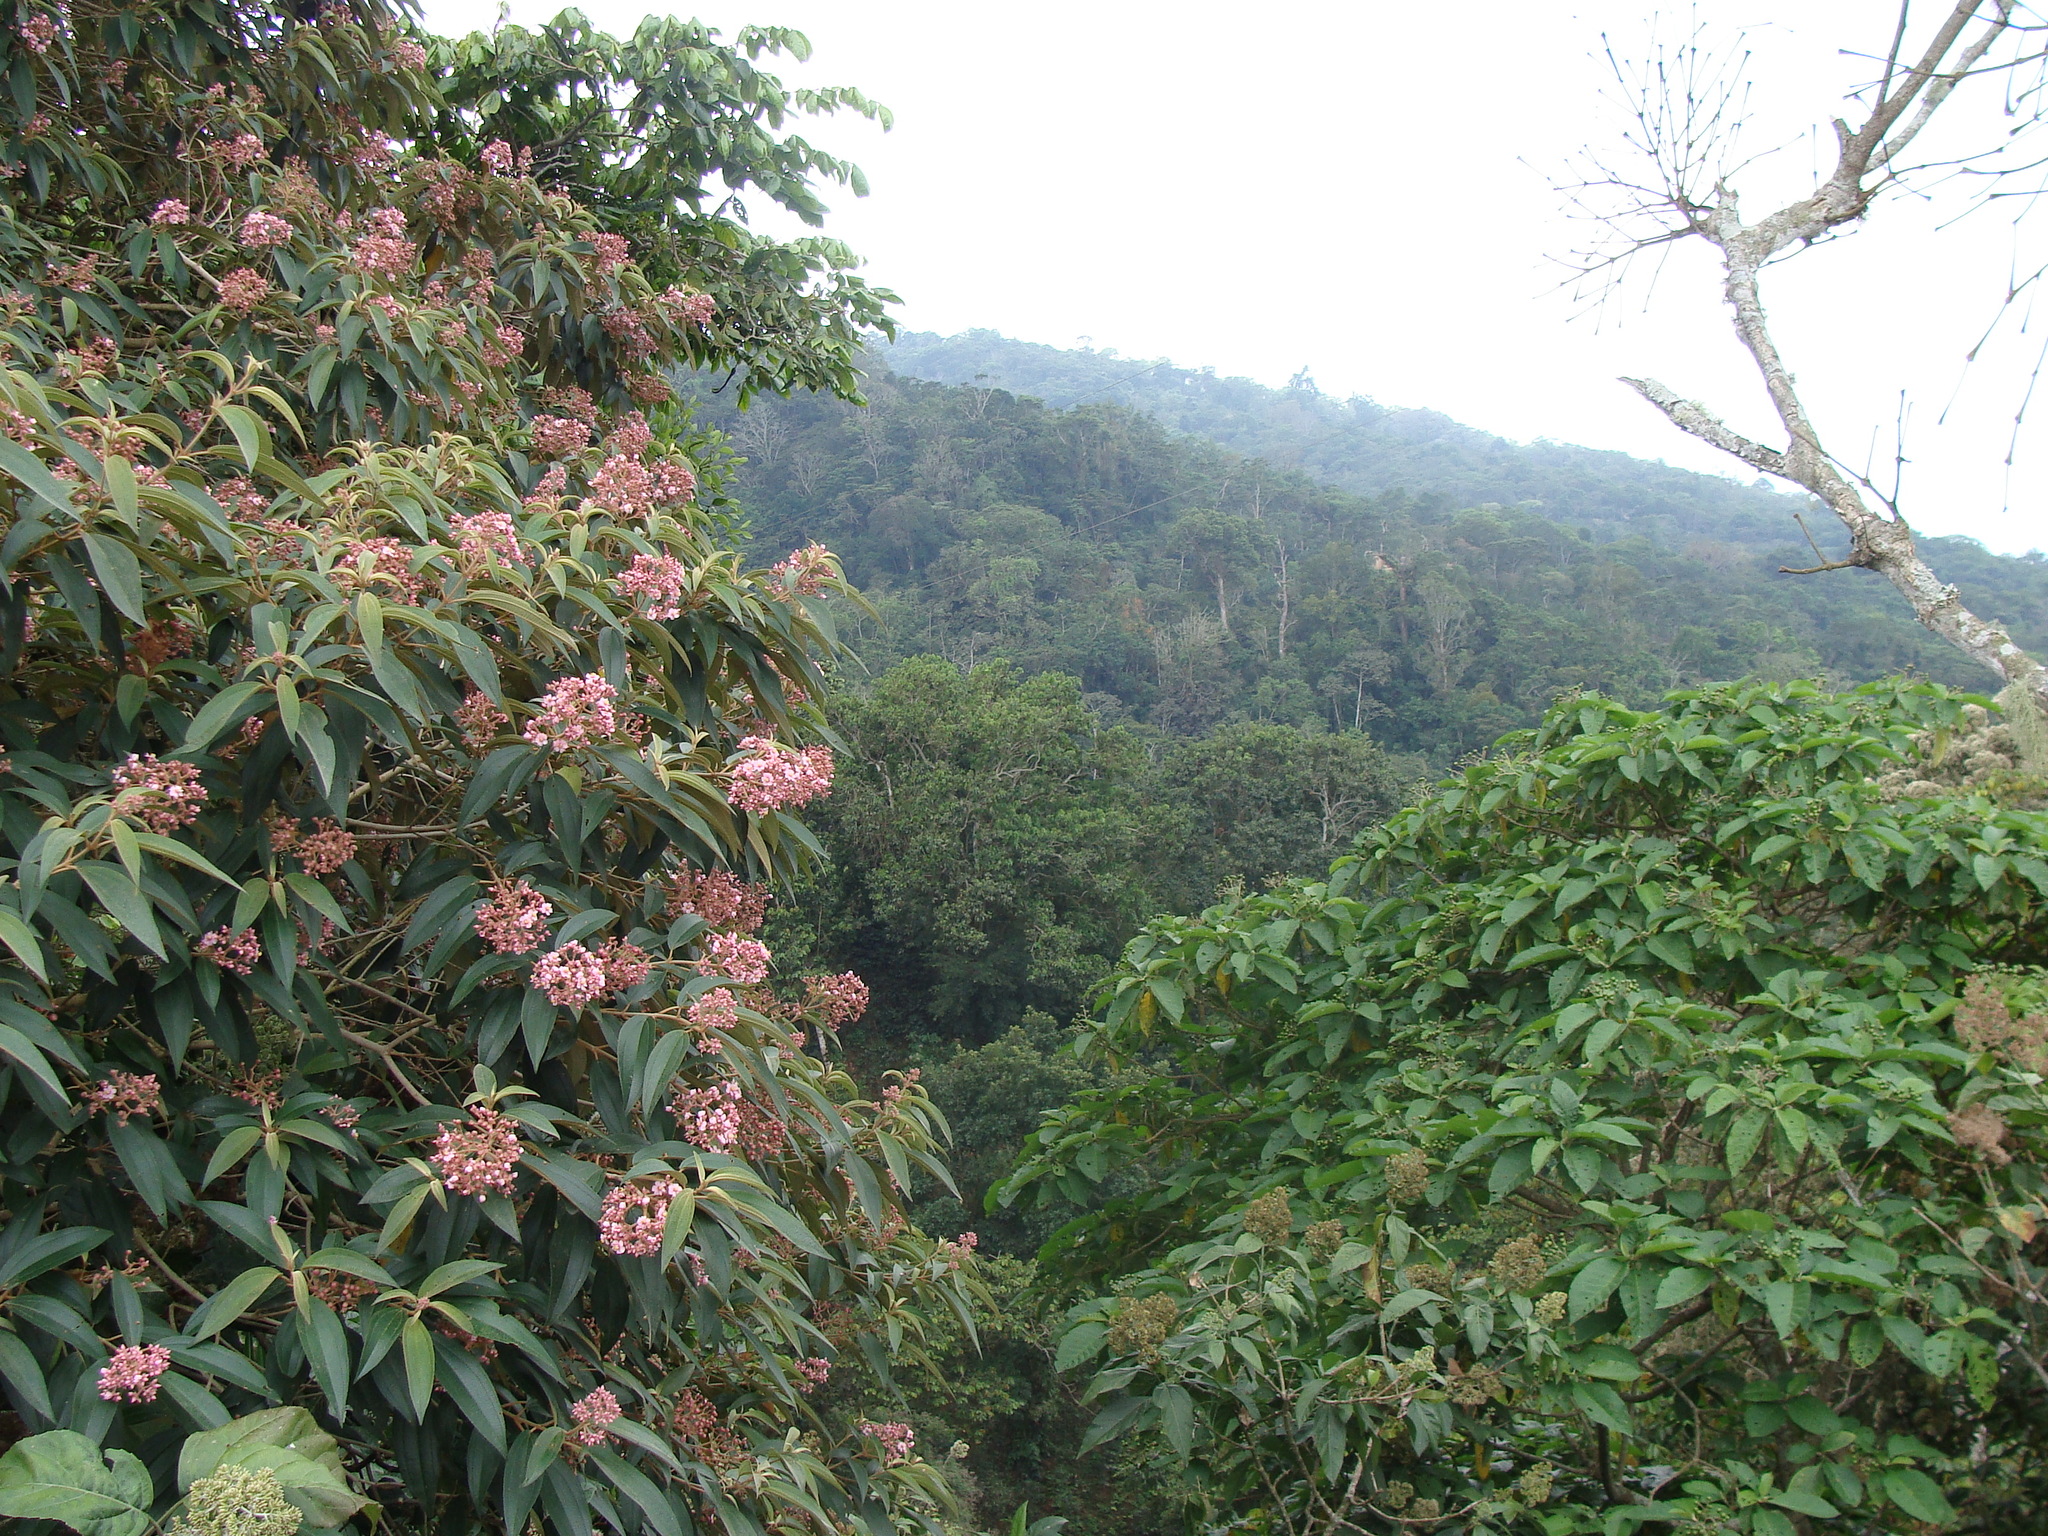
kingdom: Plantae
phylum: Tracheophyta
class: Magnoliopsida
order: Myrtales
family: Melastomataceae
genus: Miconia
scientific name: Miconia xalapensis
